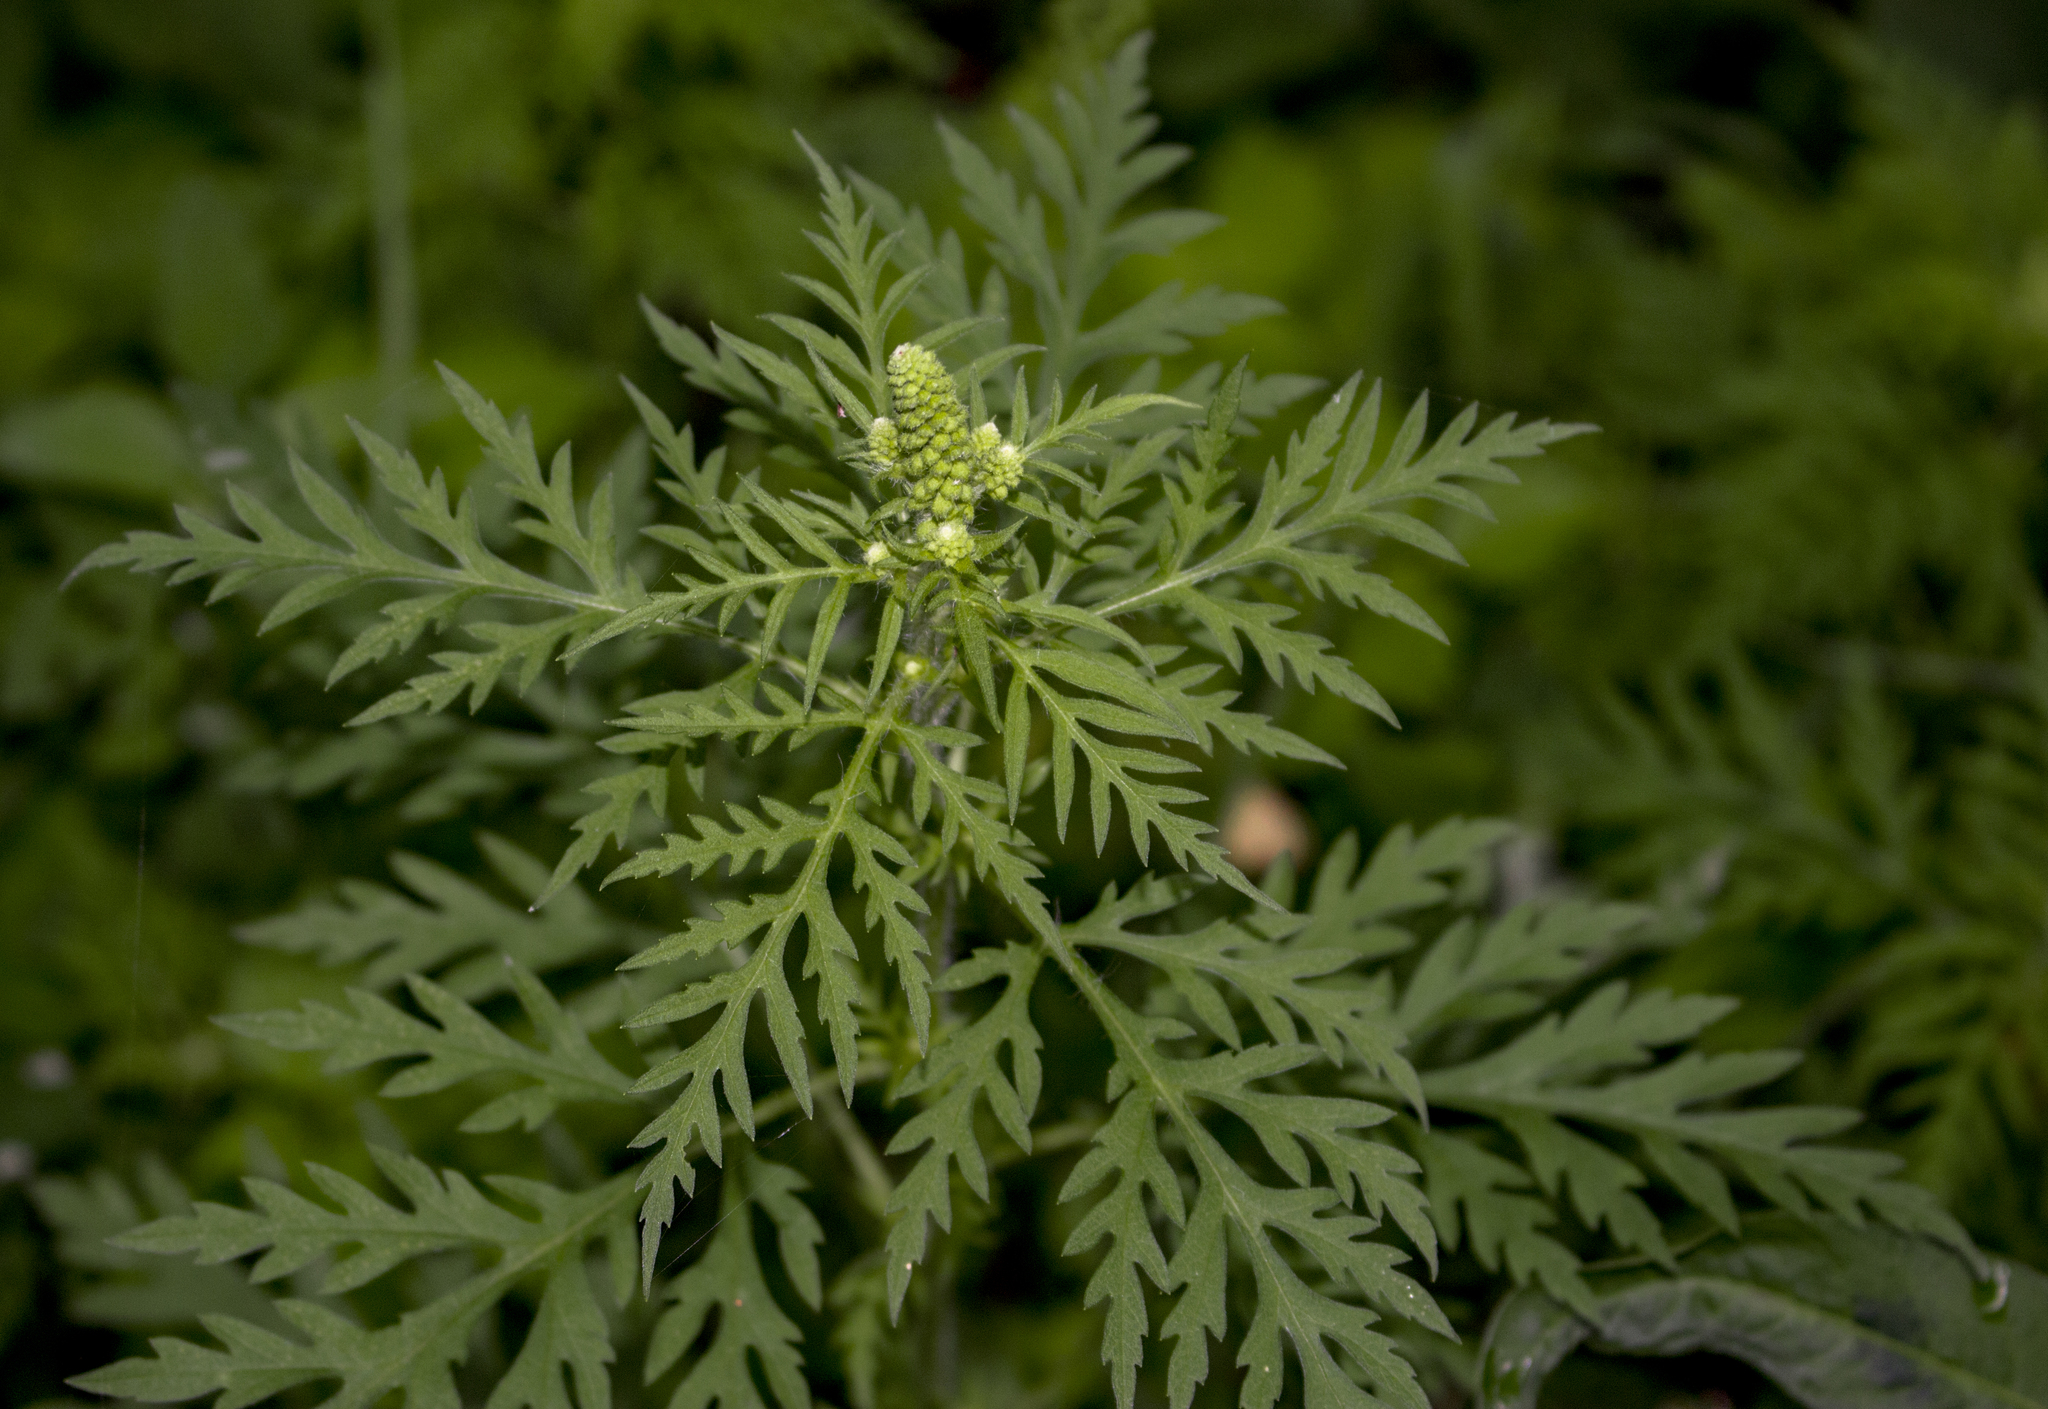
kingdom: Plantae
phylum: Tracheophyta
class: Magnoliopsida
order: Asterales
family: Asteraceae
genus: Ambrosia
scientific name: Ambrosia artemisiifolia
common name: Annual ragweed
